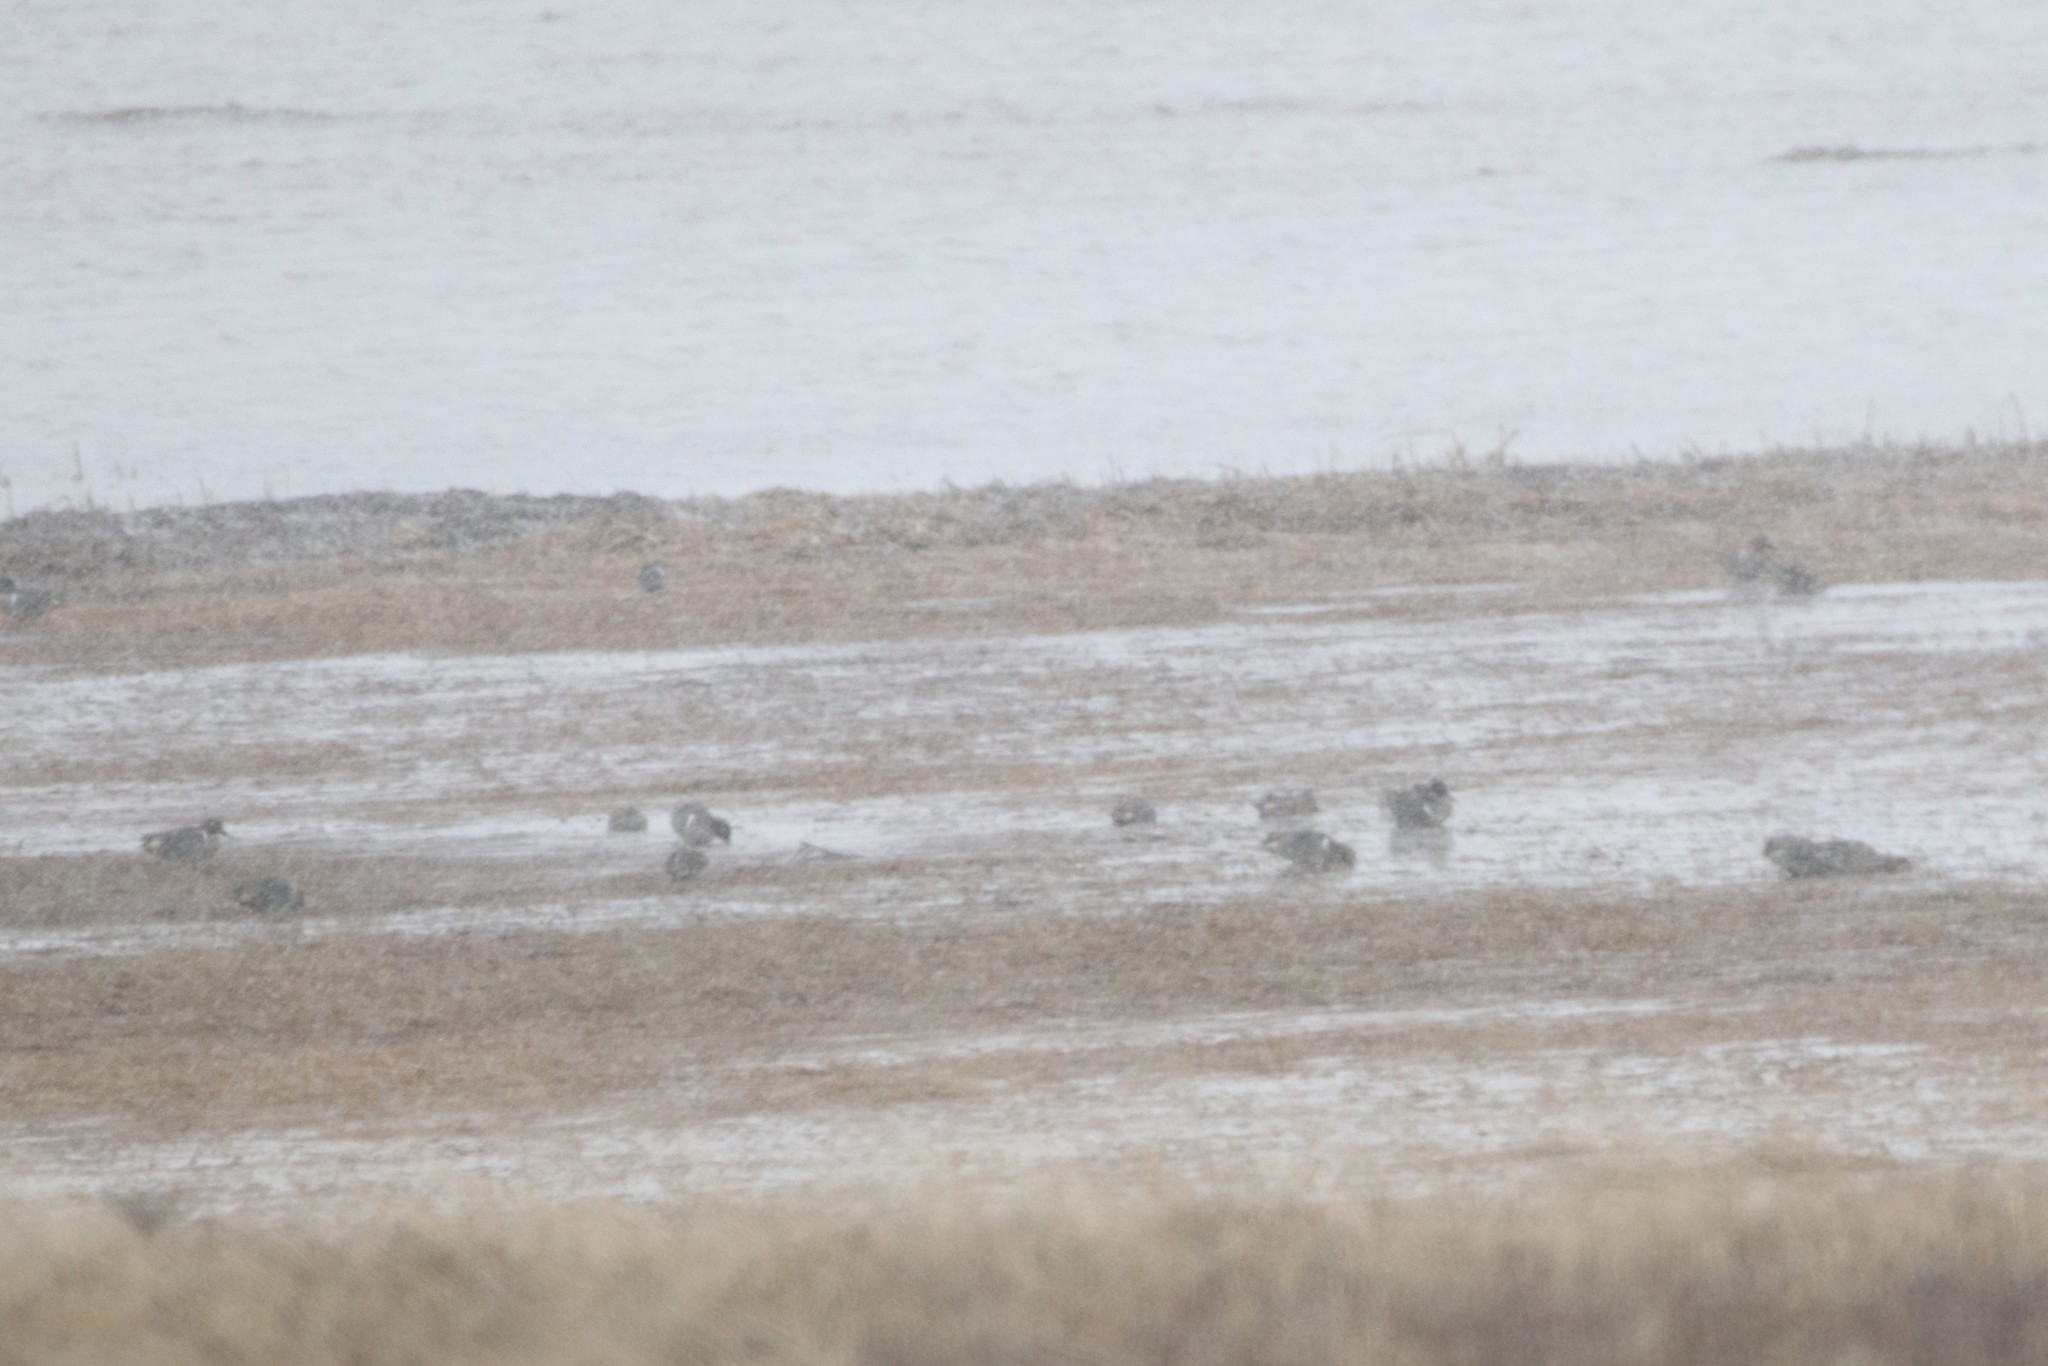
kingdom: Animalia
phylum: Chordata
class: Aves
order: Anseriformes
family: Anatidae
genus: Anas
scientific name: Anas crecca
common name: Eurasian teal
